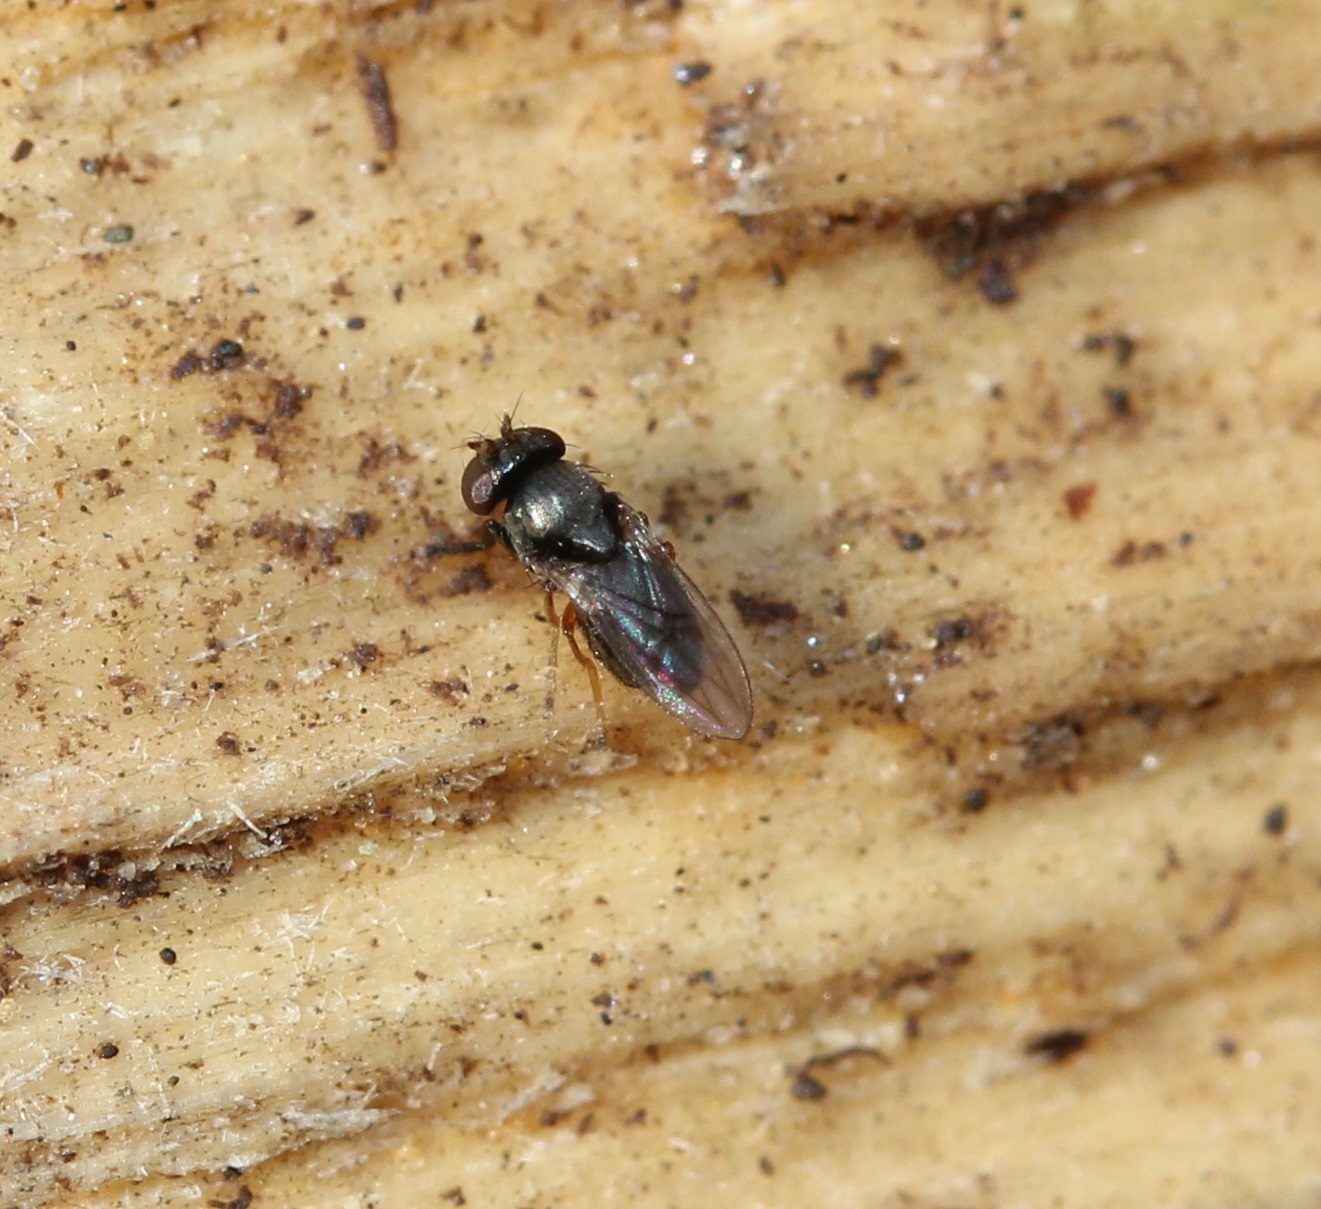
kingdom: Animalia
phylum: Arthropoda
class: Insecta
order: Diptera
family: Ephydridae
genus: Leptopsilopa
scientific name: Leptopsilopa atrimanus
